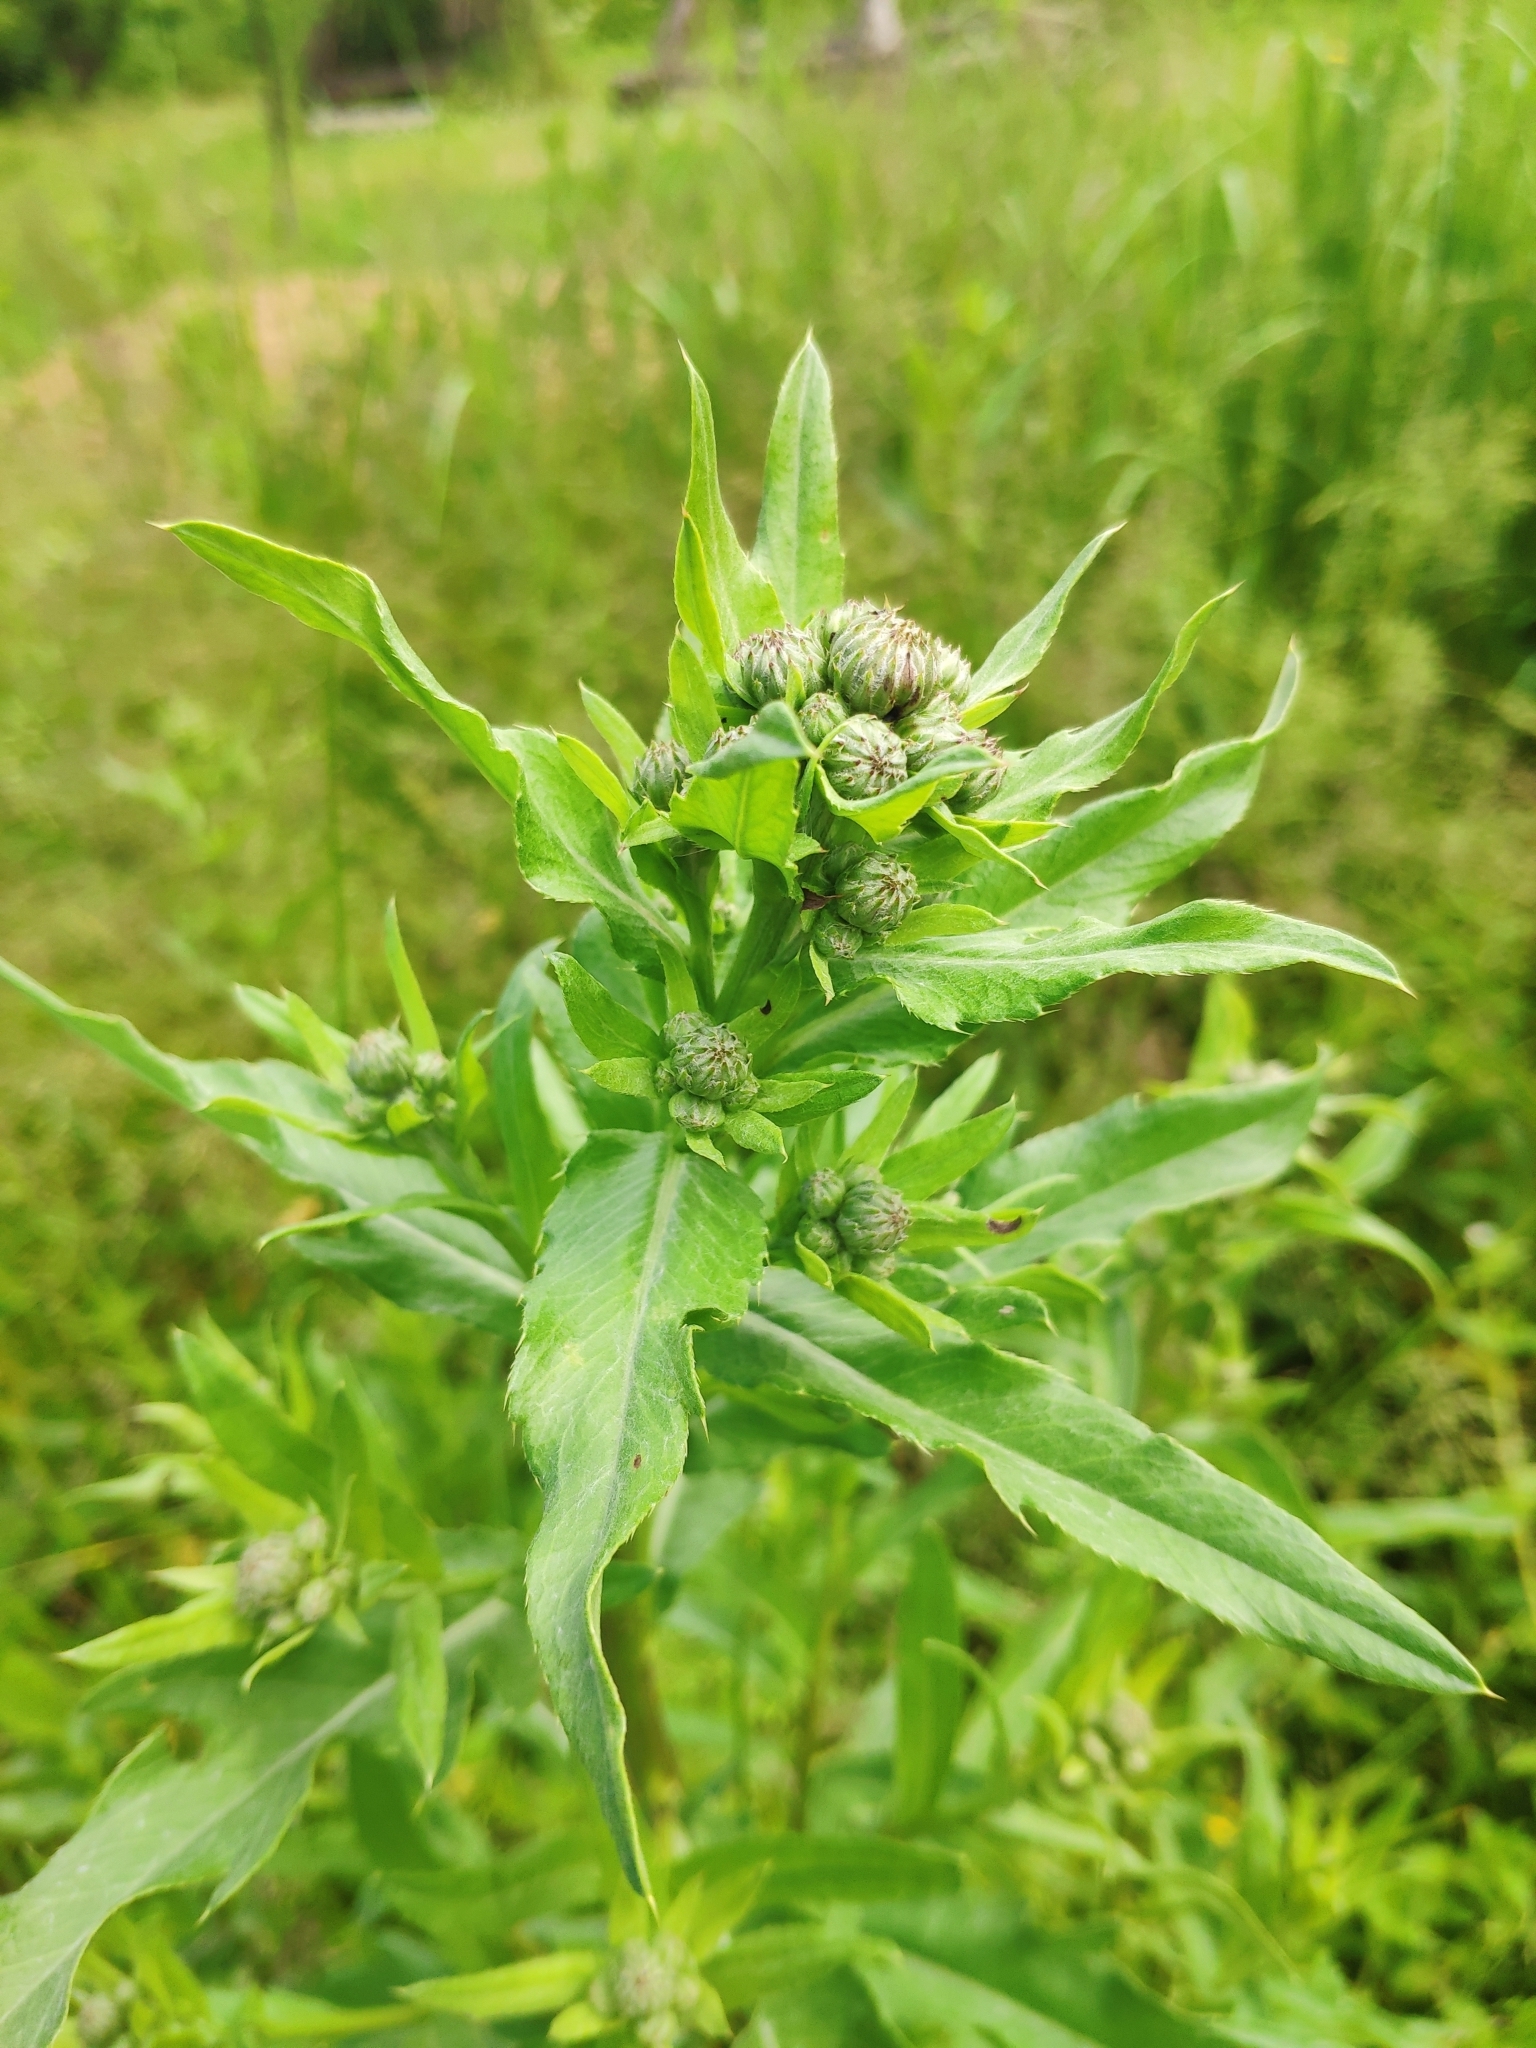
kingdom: Plantae
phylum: Tracheophyta
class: Magnoliopsida
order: Asterales
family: Asteraceae
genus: Cirsium
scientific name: Cirsium arvense
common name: Creeping thistle
